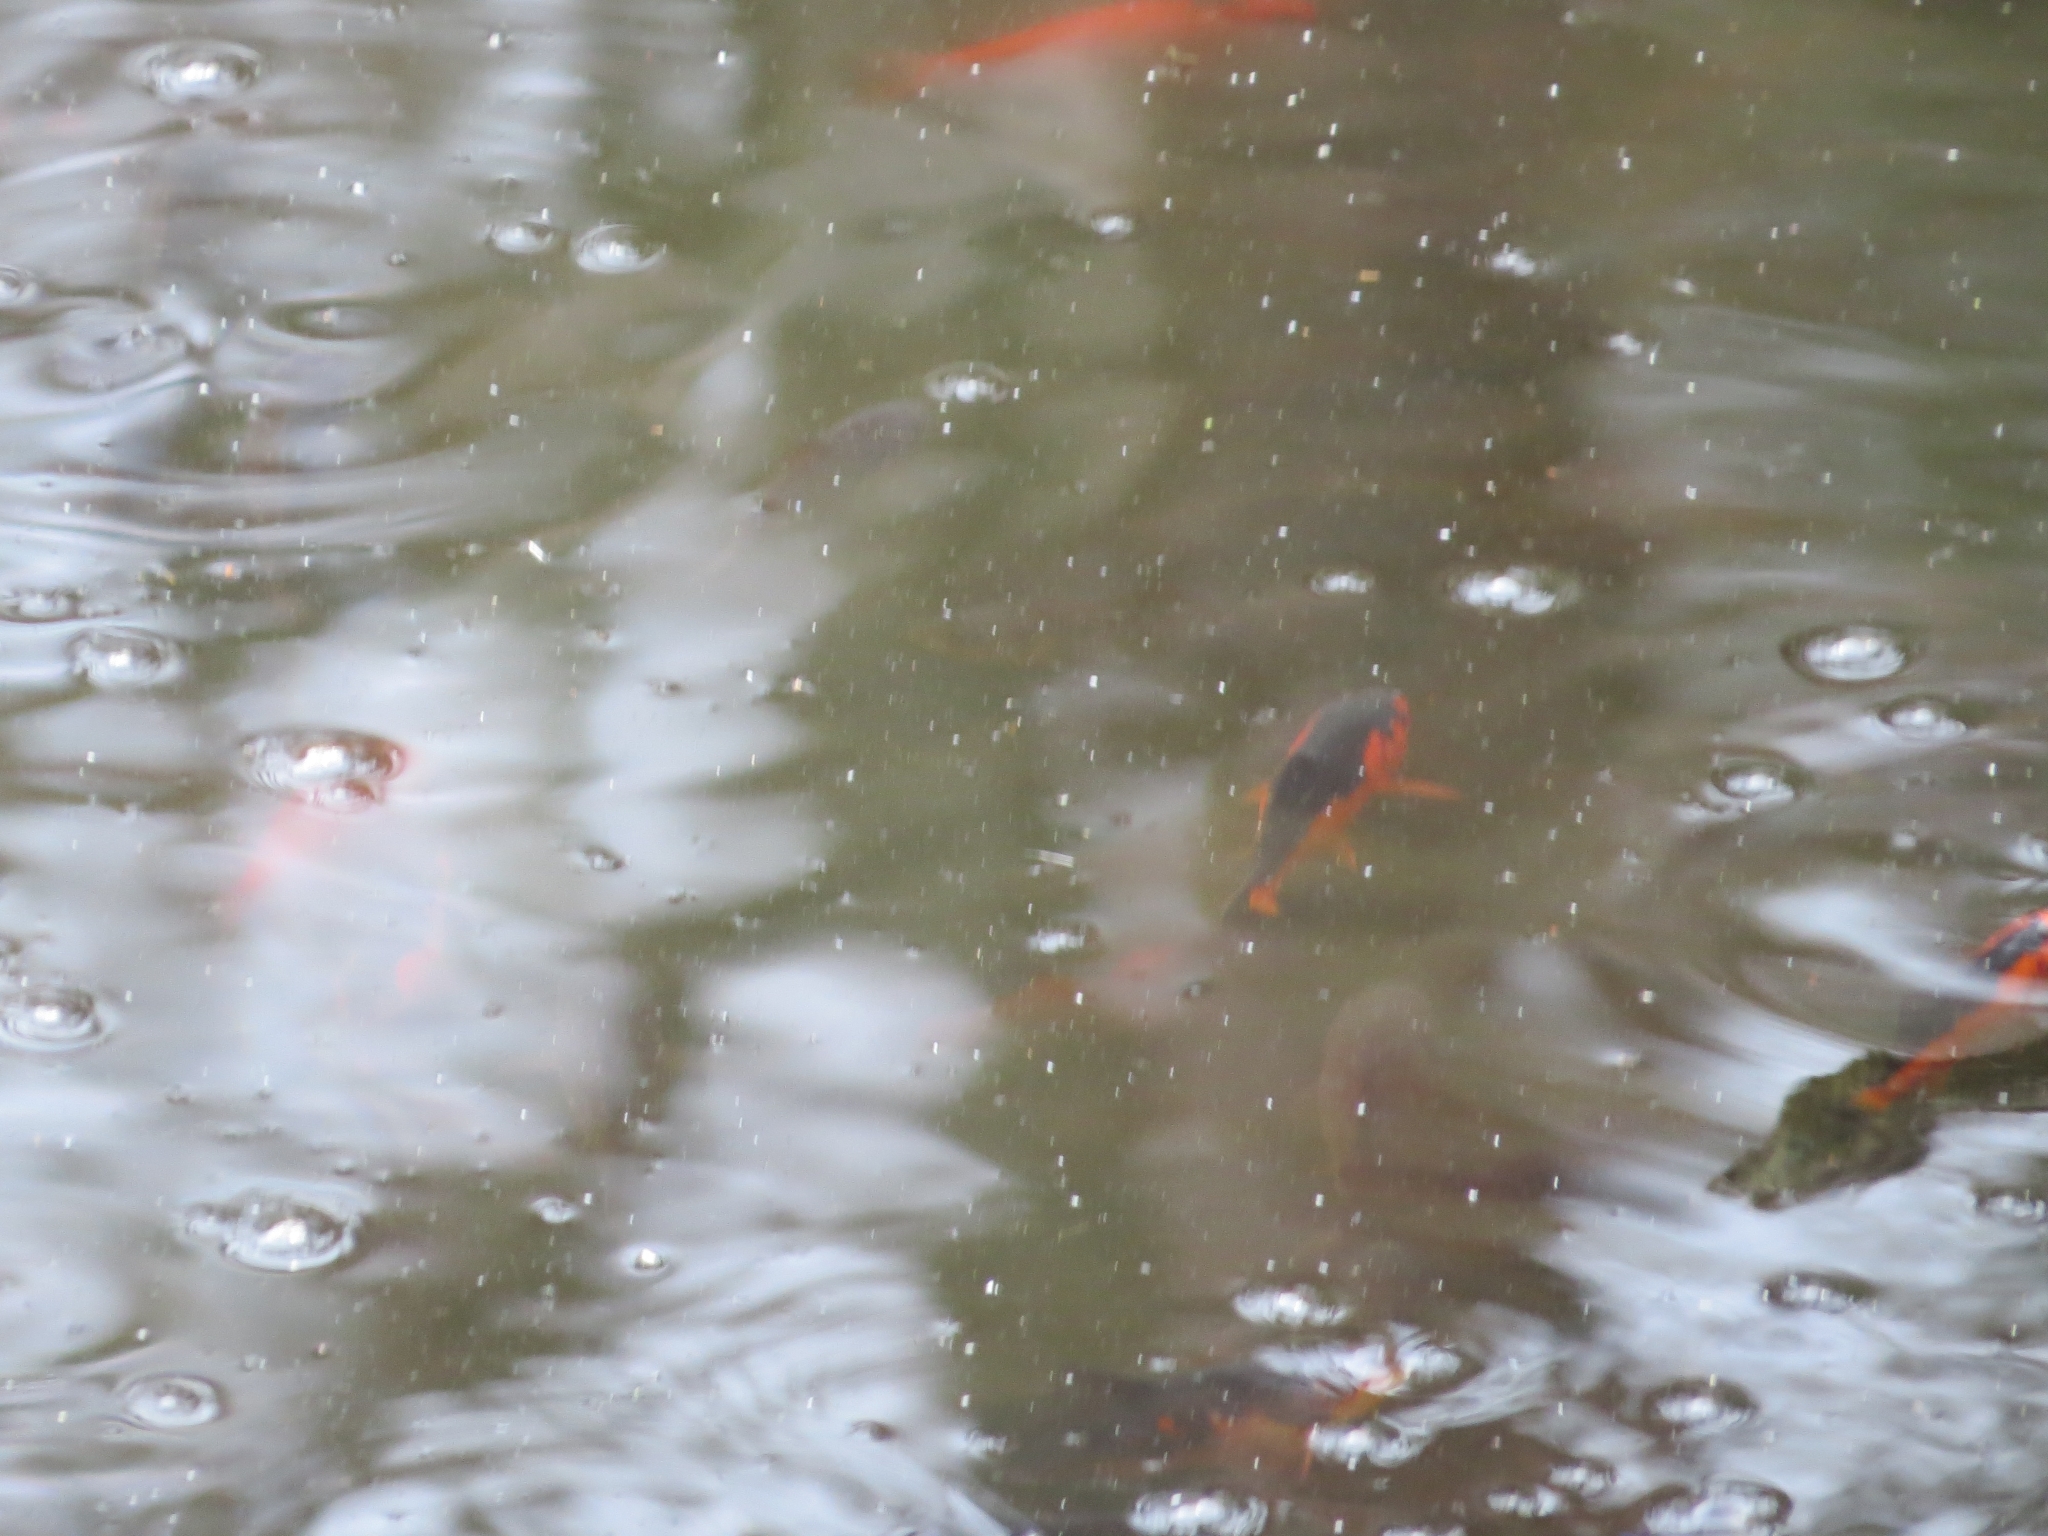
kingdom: Animalia
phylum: Chordata
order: Cypriniformes
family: Cyprinidae
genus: Carassius
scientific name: Carassius auratus
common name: Goldfish
